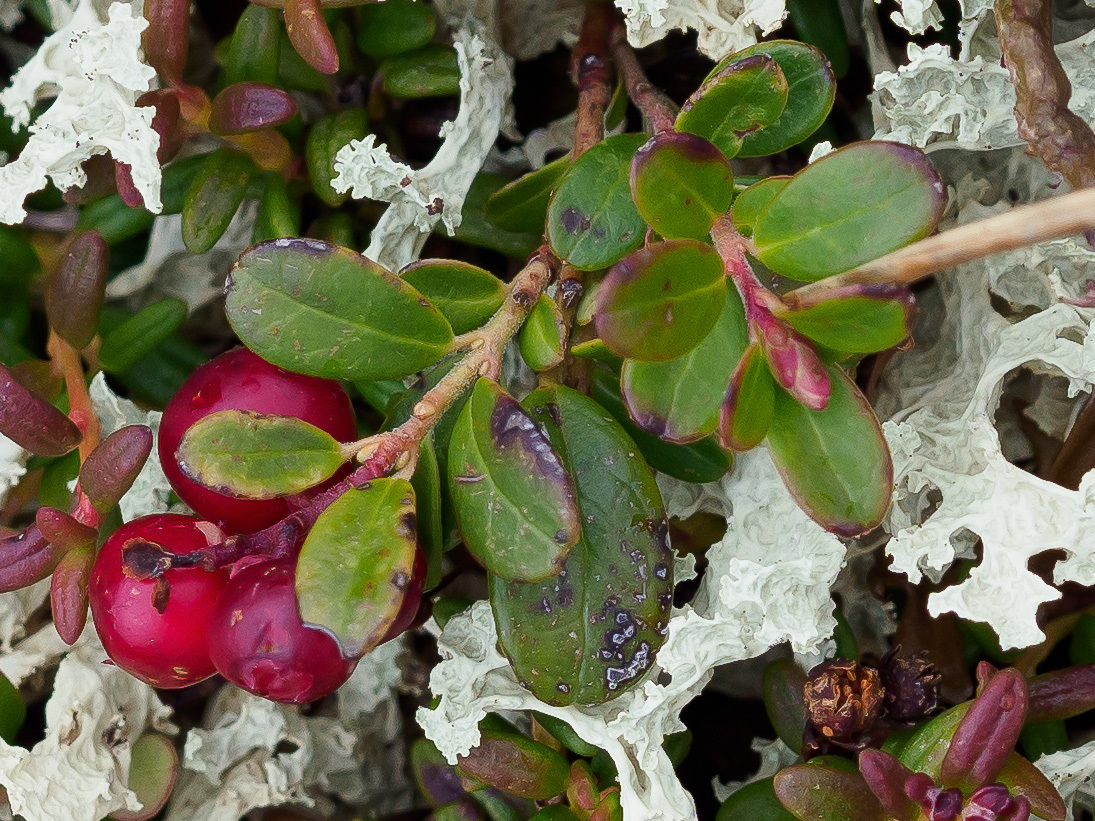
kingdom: Plantae
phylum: Tracheophyta
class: Magnoliopsida
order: Ericales
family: Ericaceae
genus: Vaccinium
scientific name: Vaccinium vitis-idaea
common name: Cowberry
